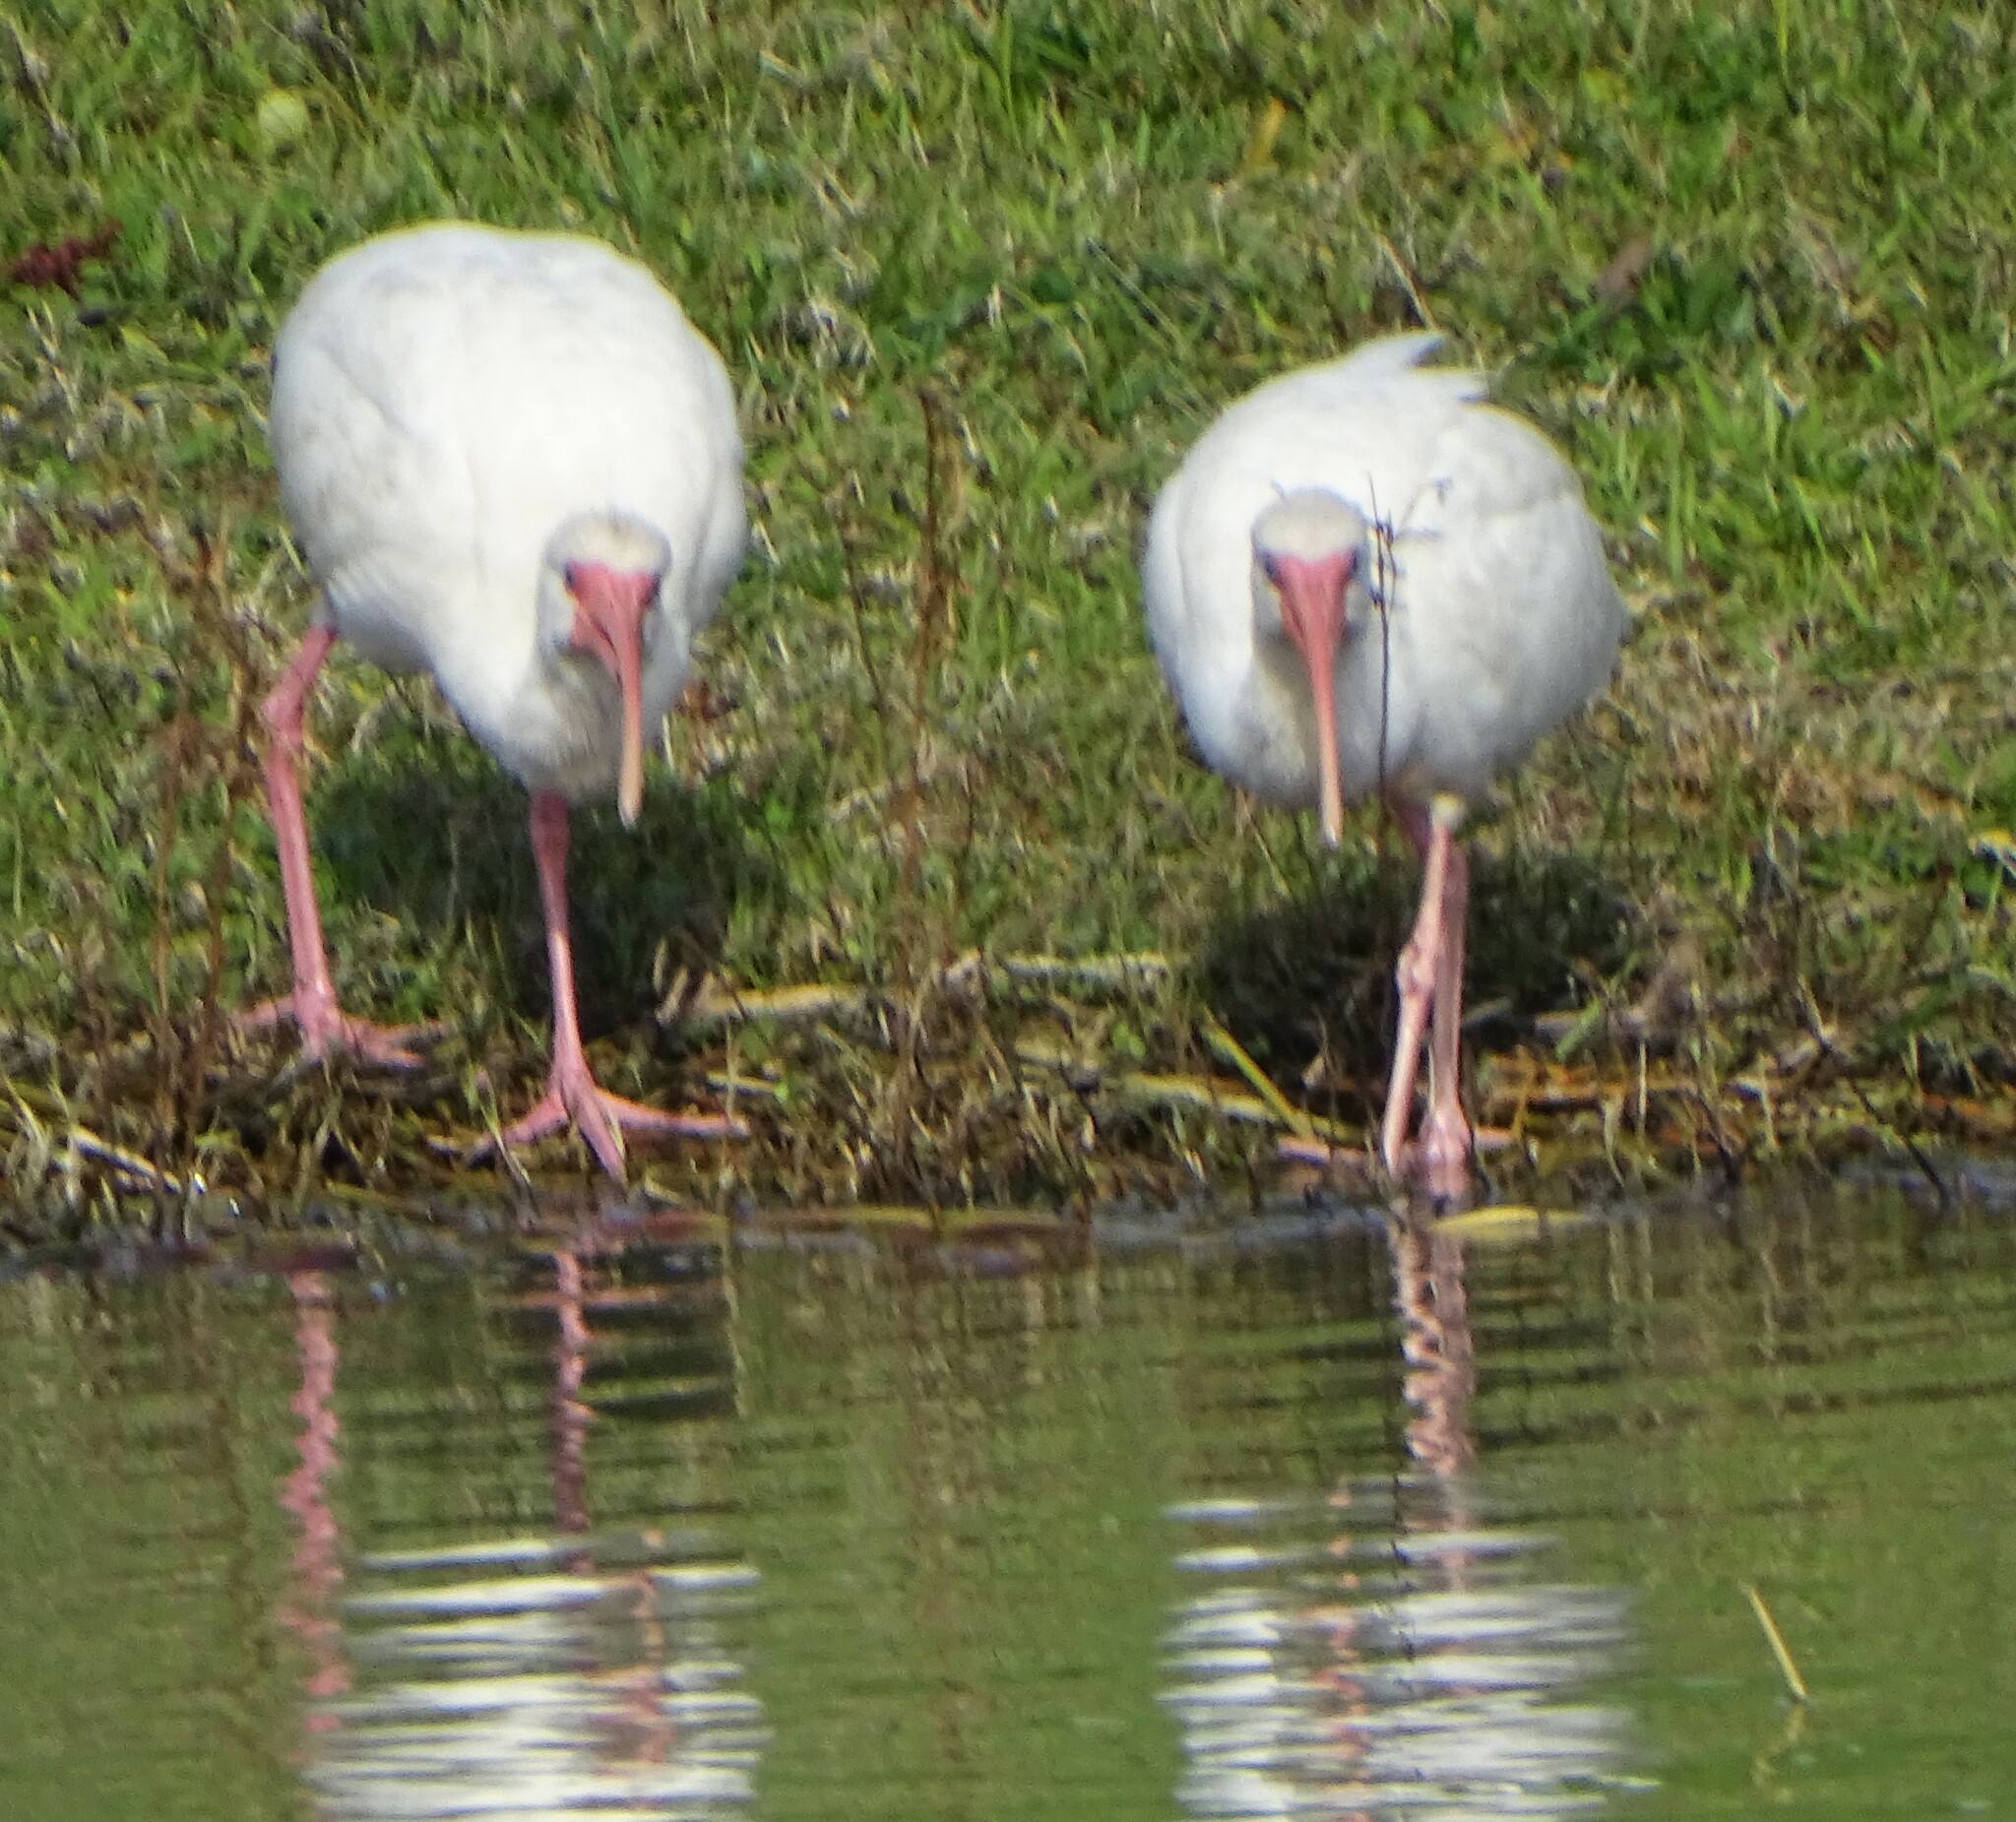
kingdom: Animalia
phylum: Chordata
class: Aves
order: Pelecaniformes
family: Threskiornithidae
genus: Eudocimus
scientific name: Eudocimus albus
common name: White ibis
